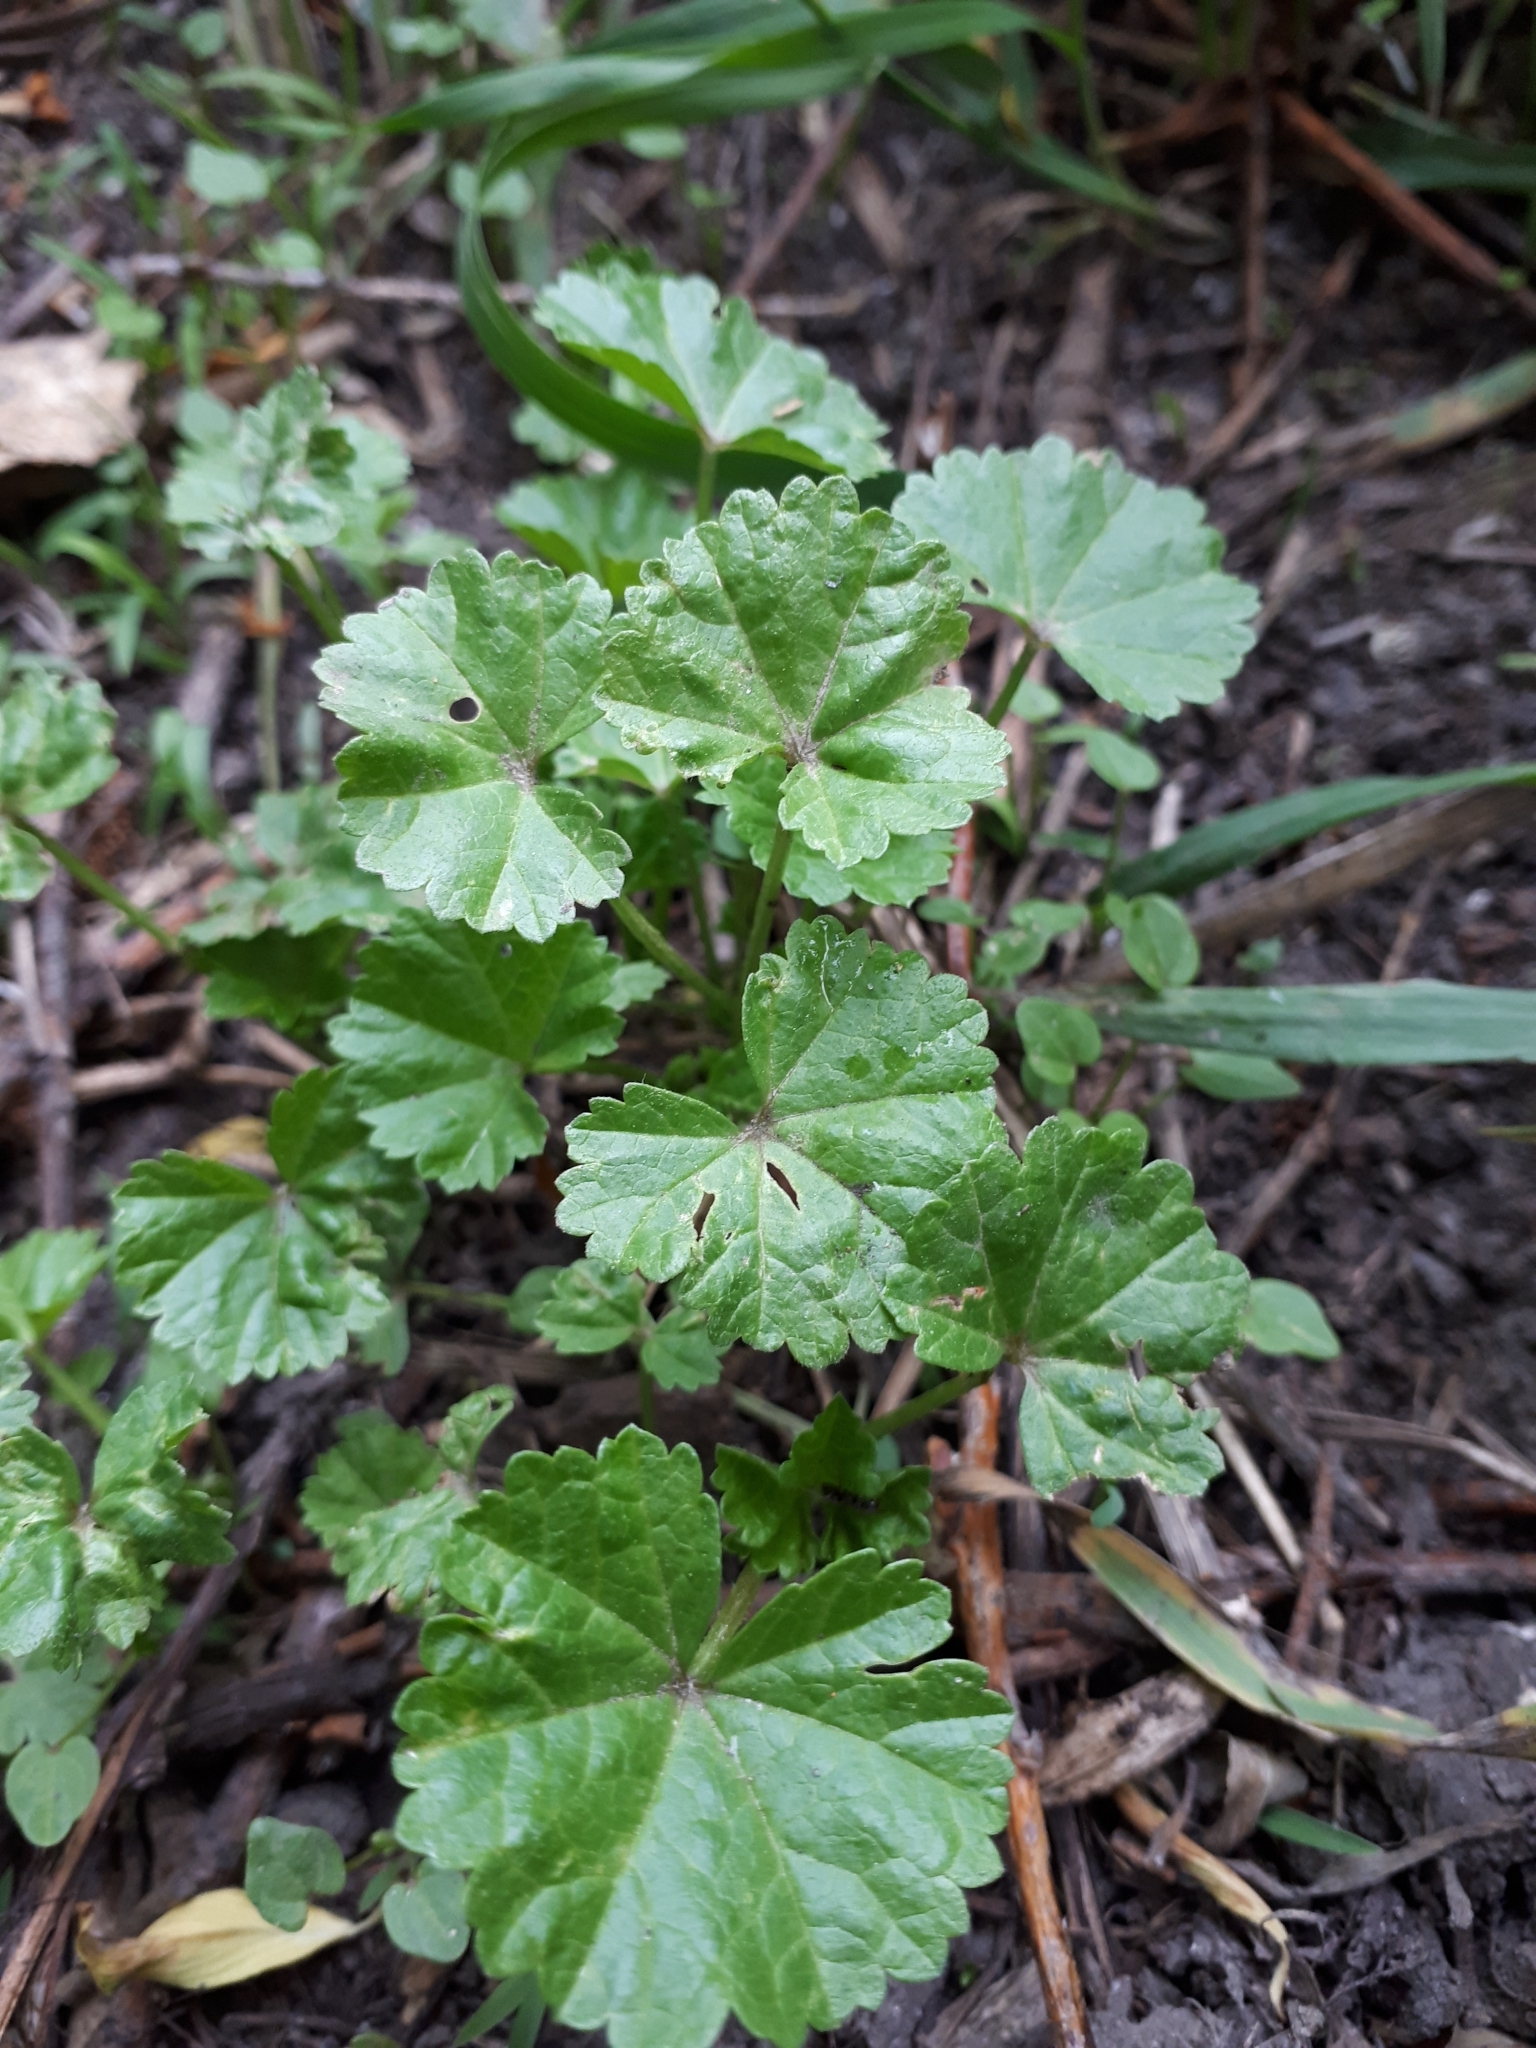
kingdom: Plantae
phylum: Tracheophyta
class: Magnoliopsida
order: Malvales
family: Malvaceae
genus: Malva
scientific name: Malva pusilla
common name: Small mallow
